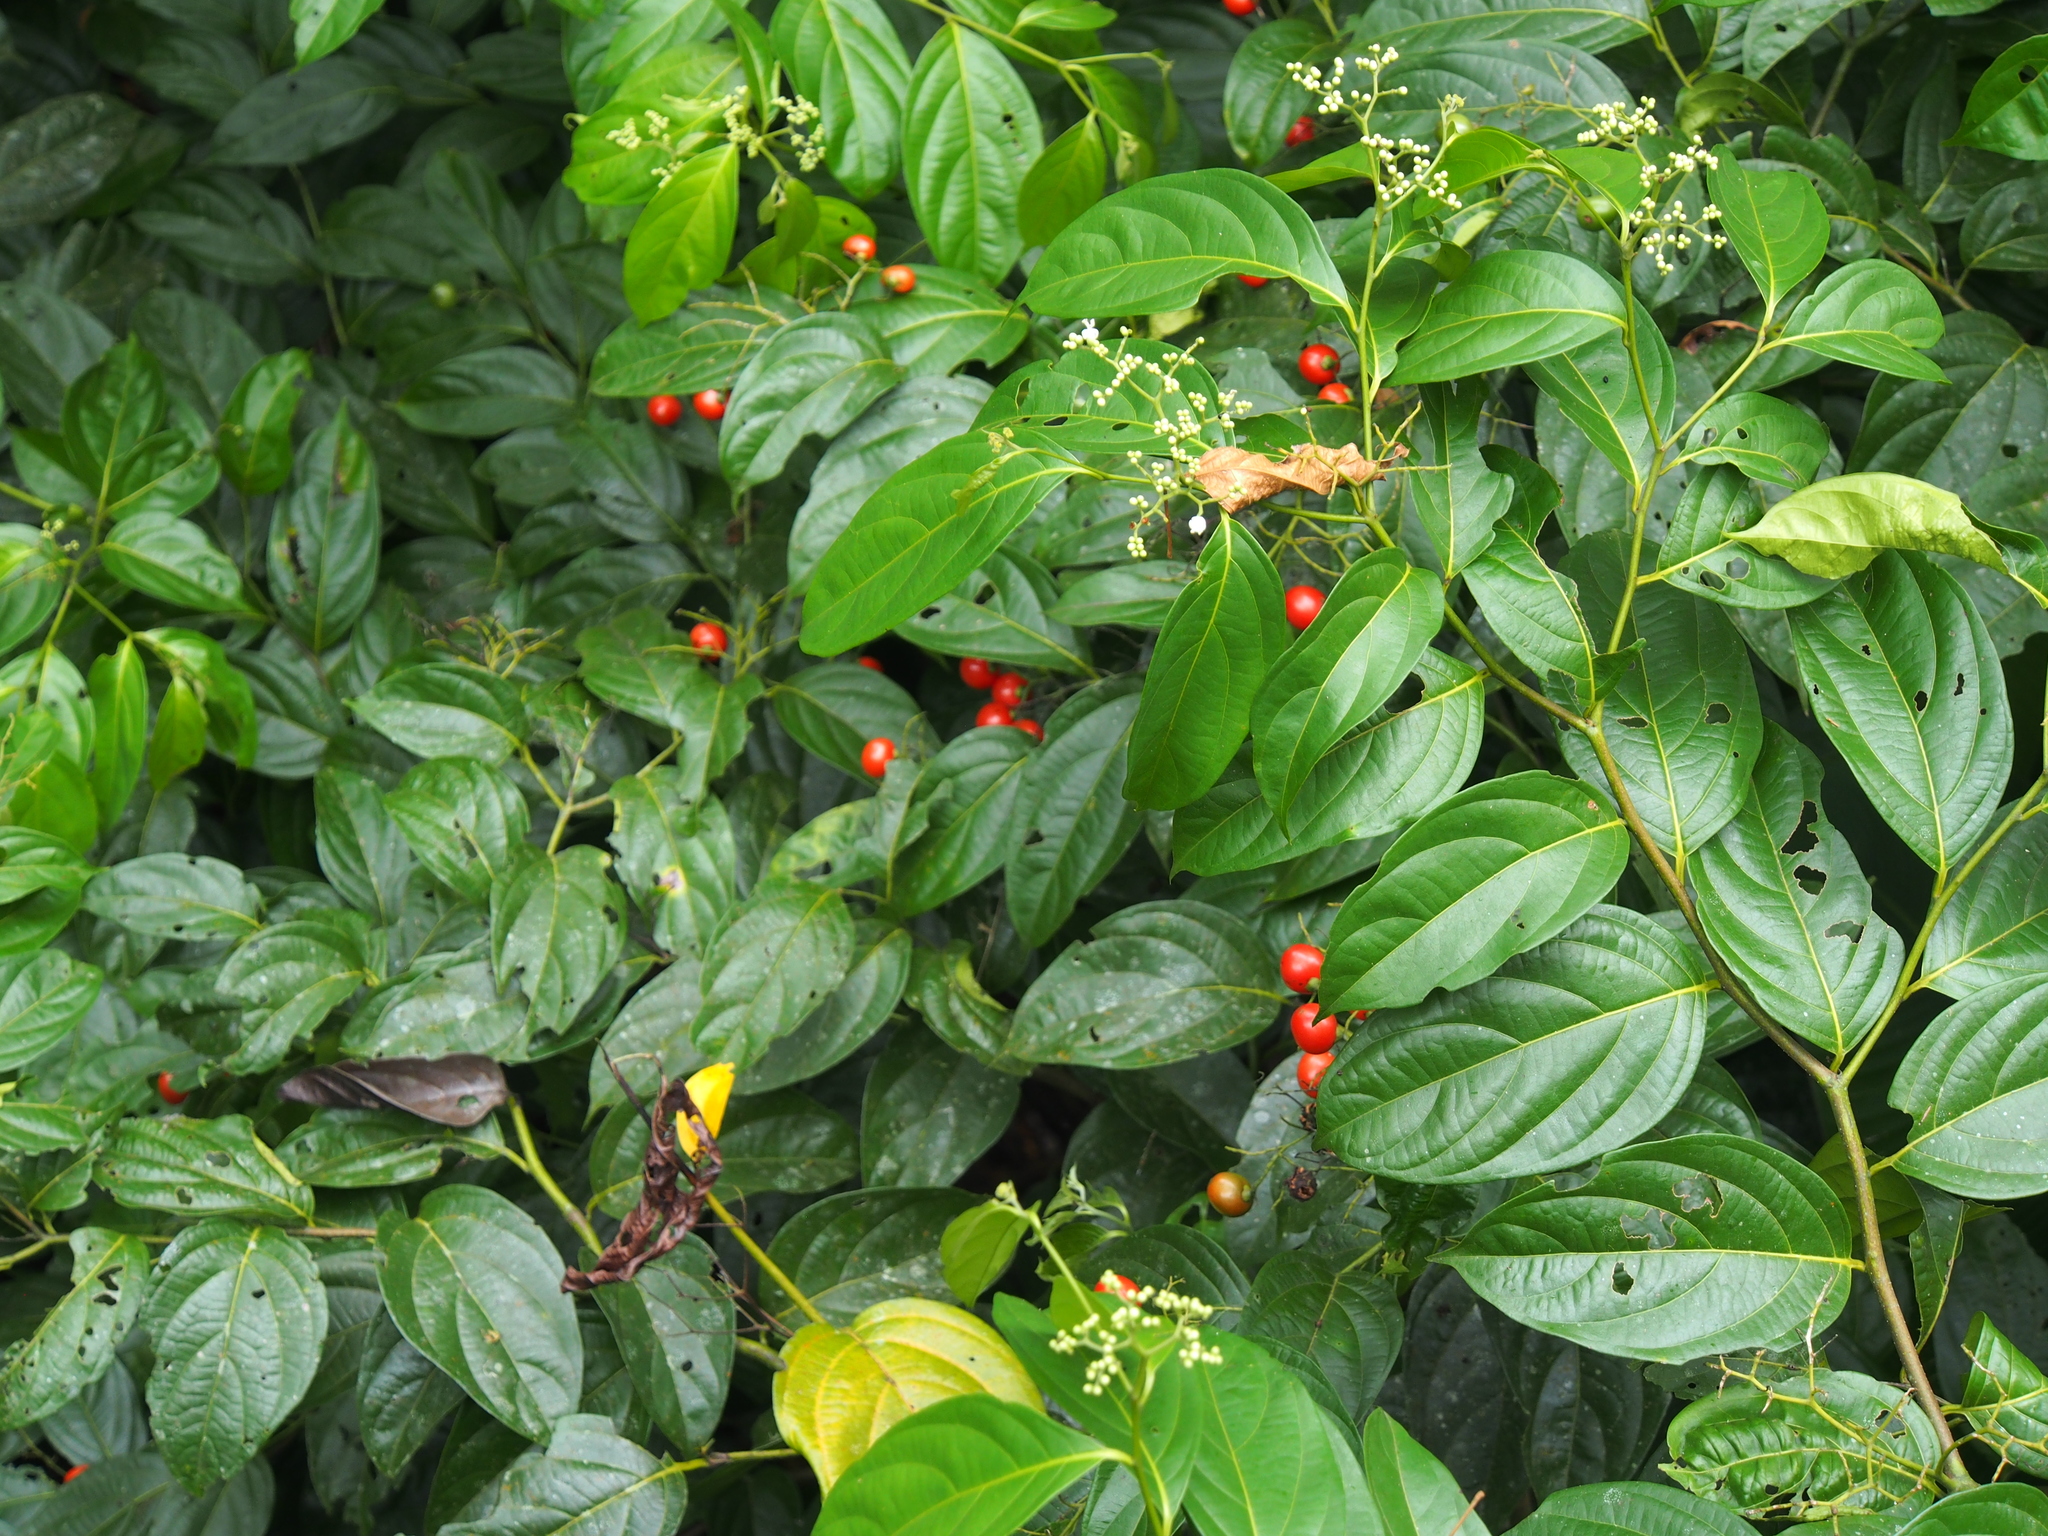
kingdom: Plantae
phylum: Tracheophyta
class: Magnoliopsida
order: Boraginales
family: Cordiaceae
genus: Cordia
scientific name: Cordia lucidula
